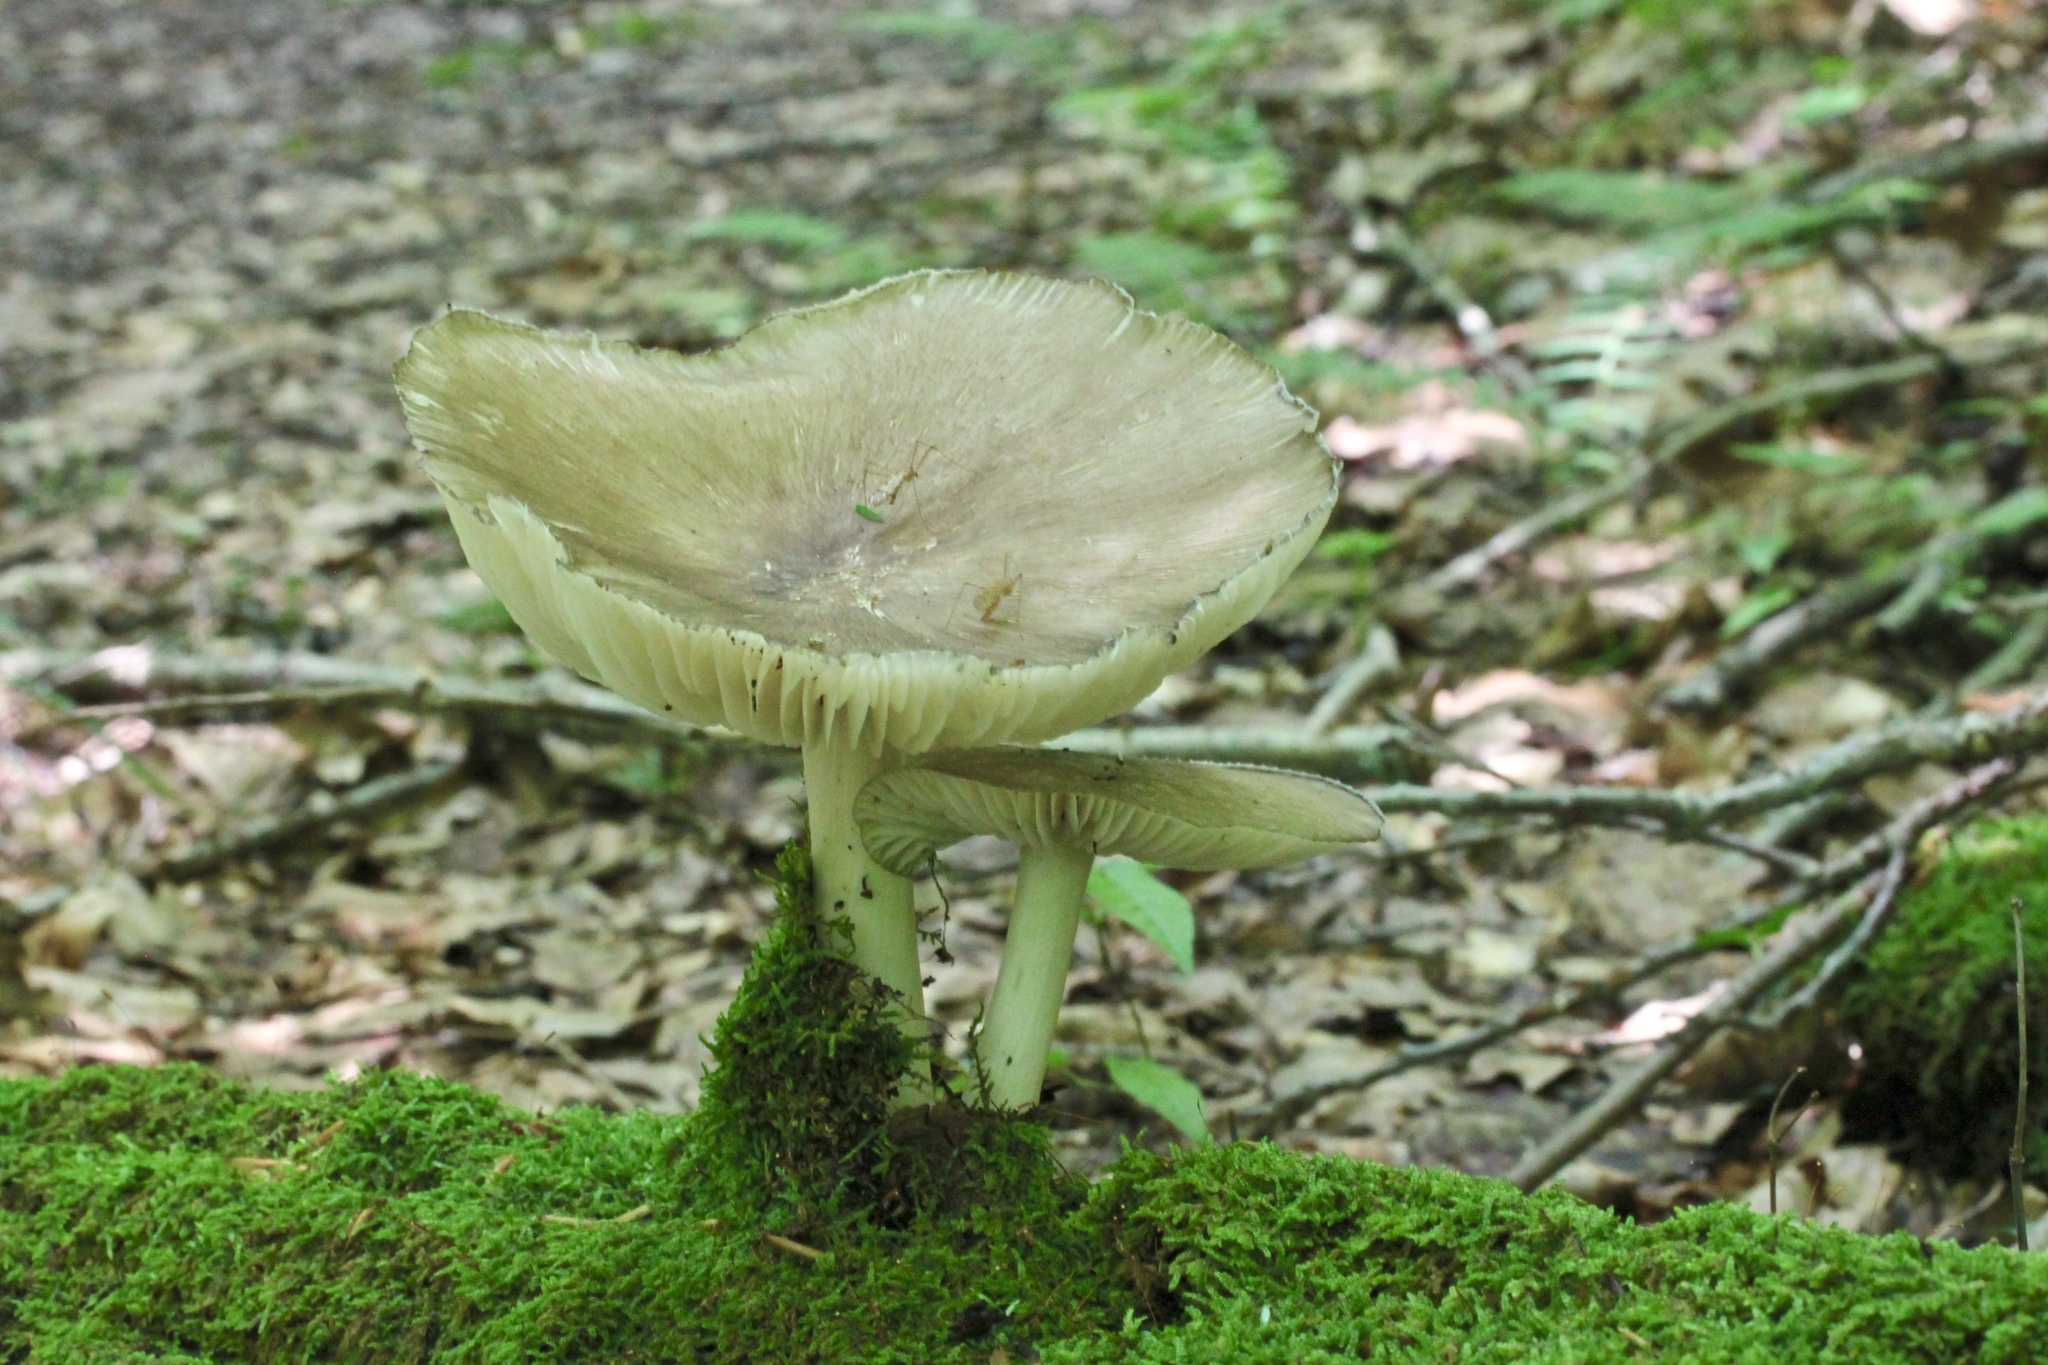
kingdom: Fungi
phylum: Basidiomycota
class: Agaricomycetes
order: Agaricales
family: Tricholomataceae
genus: Megacollybia
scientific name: Megacollybia rodmanii
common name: Eastern american platterful mushroom
